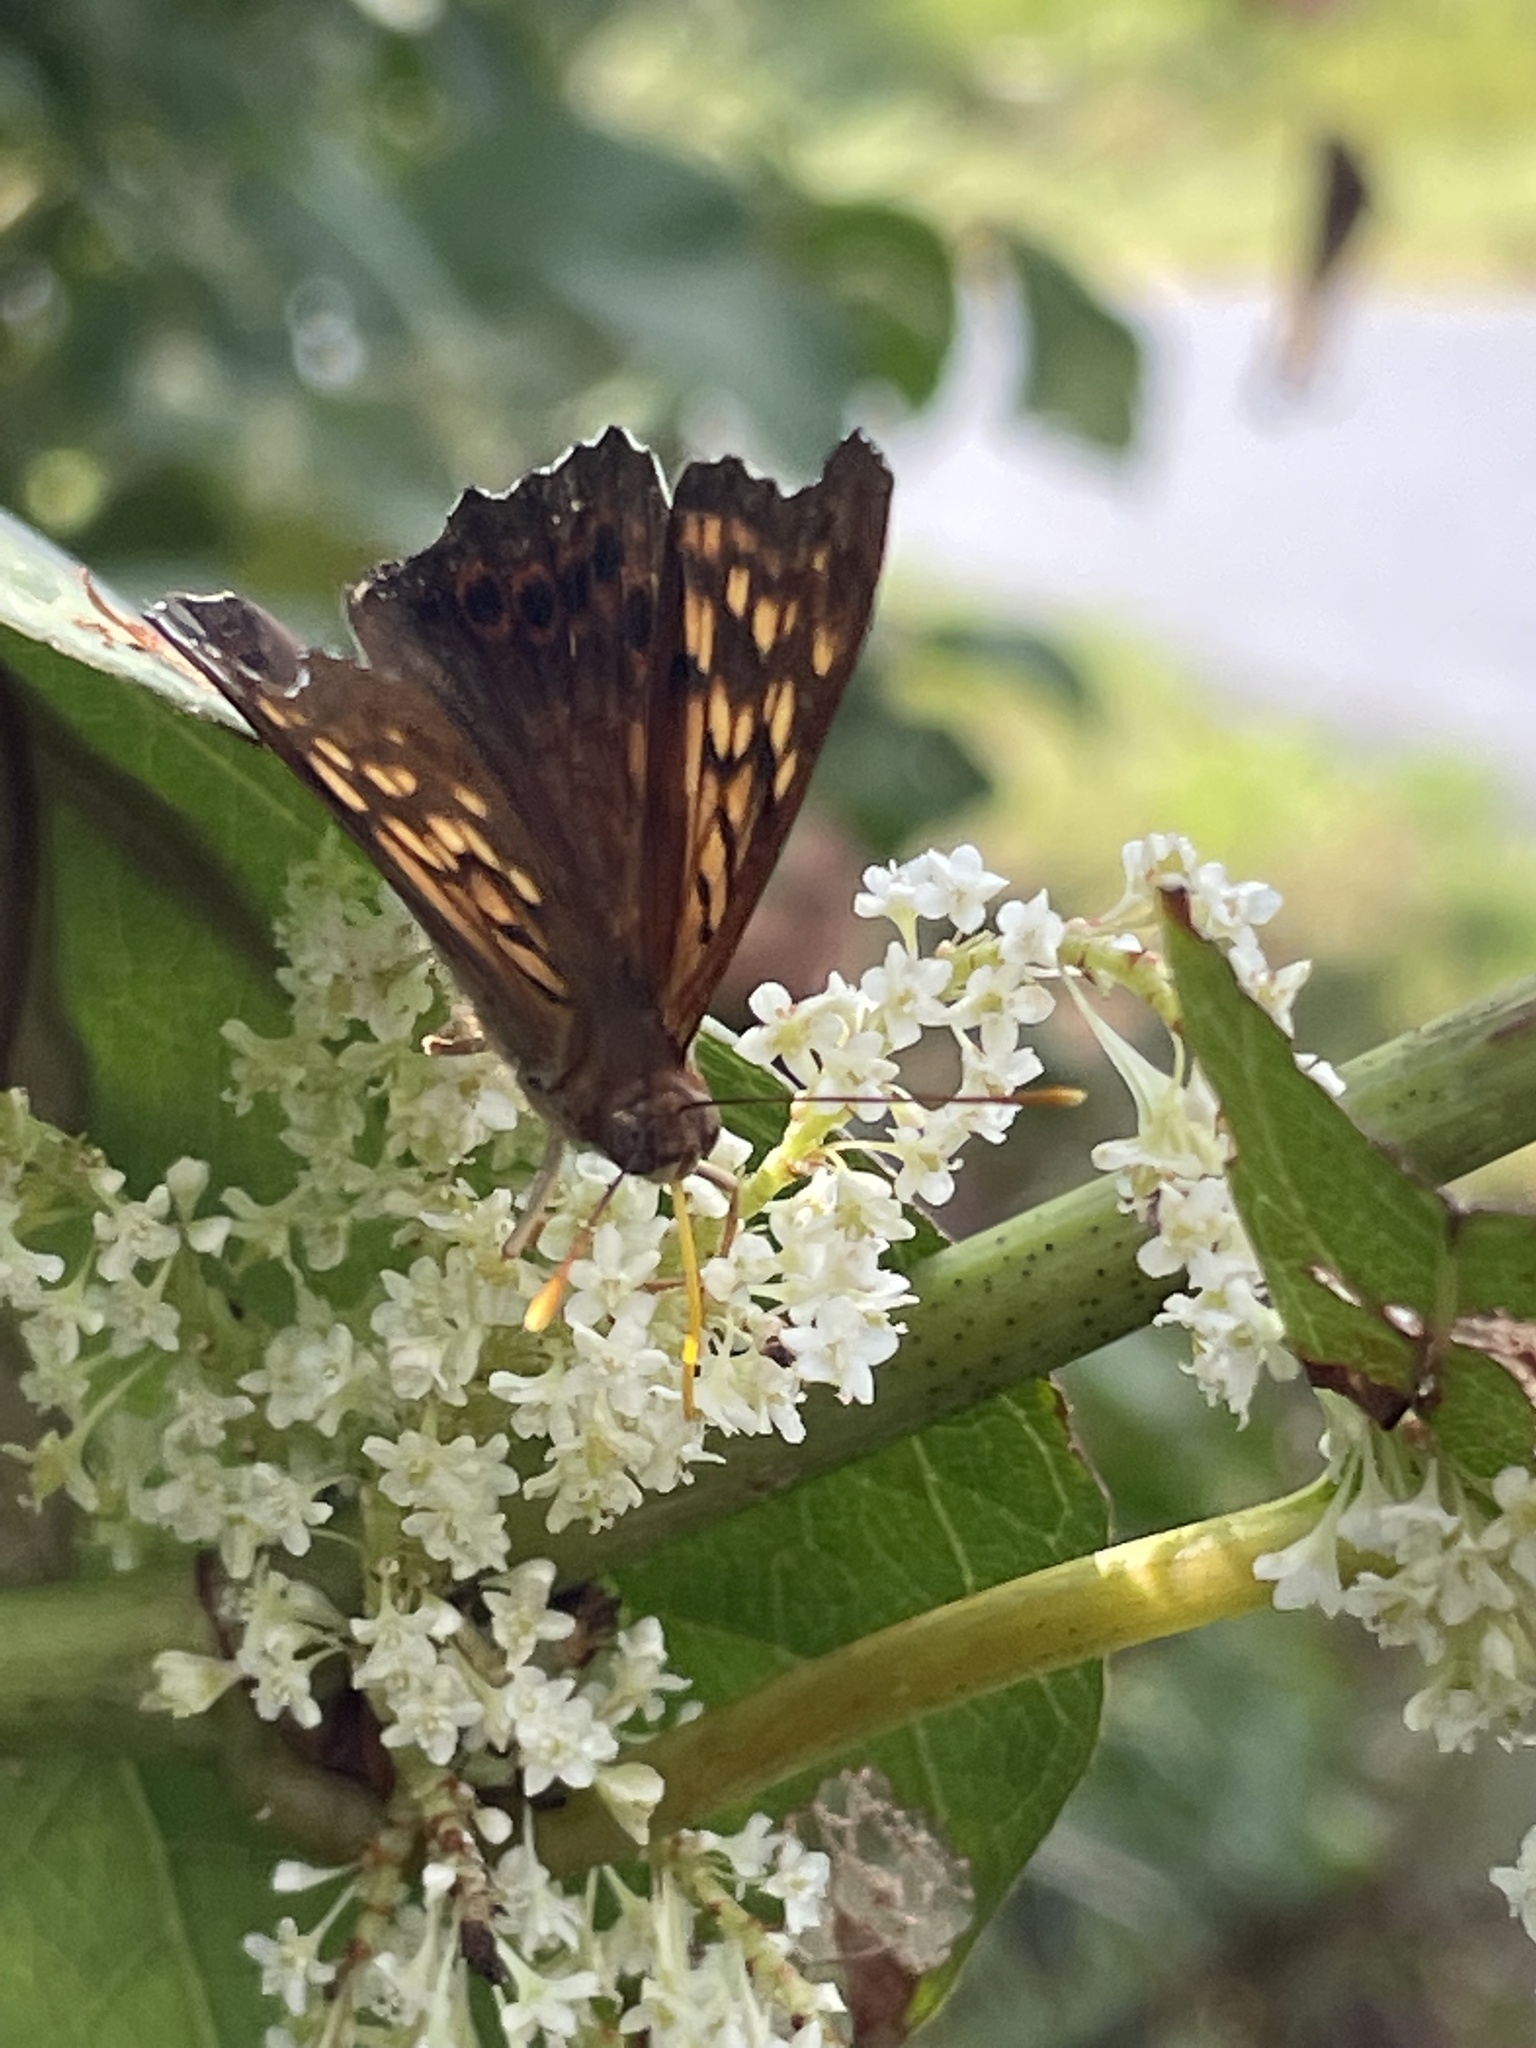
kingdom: Animalia
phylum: Arthropoda
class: Insecta
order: Lepidoptera
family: Nymphalidae
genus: Asterocampa
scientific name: Asterocampa clyton
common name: Tawny emperor
